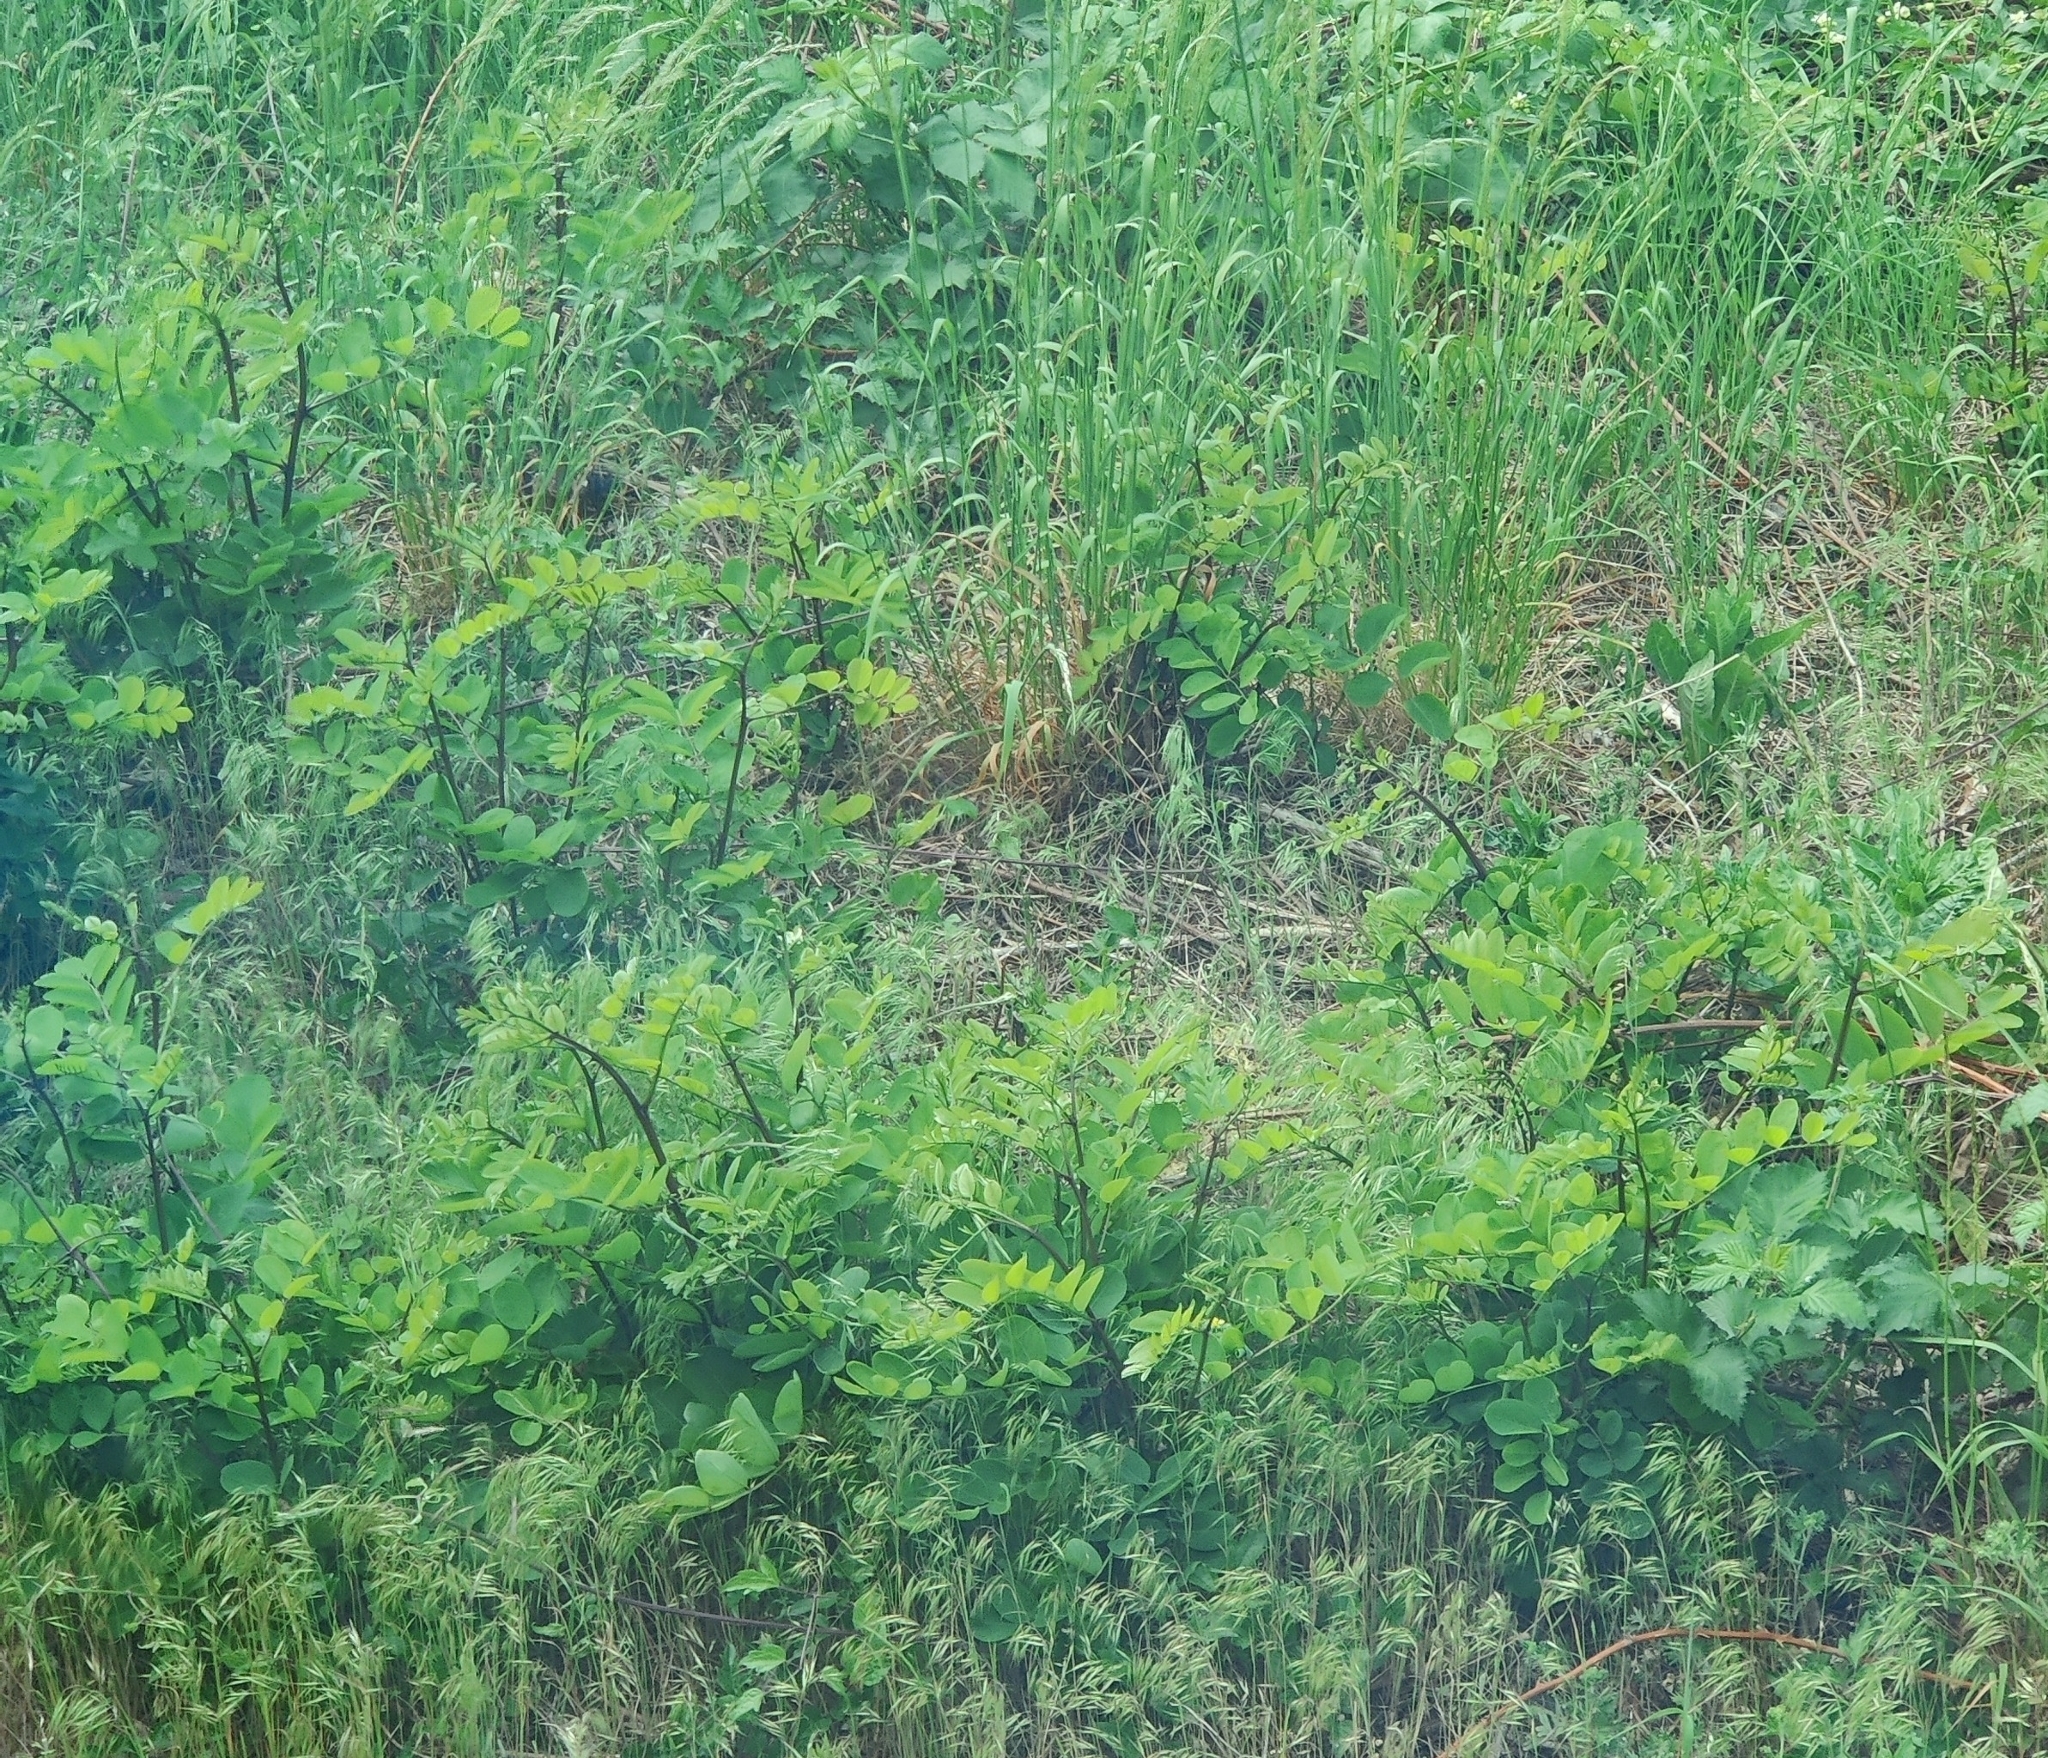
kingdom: Plantae
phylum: Tracheophyta
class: Magnoliopsida
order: Fabales
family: Fabaceae
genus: Robinia
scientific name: Robinia pseudoacacia
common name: Black locust
